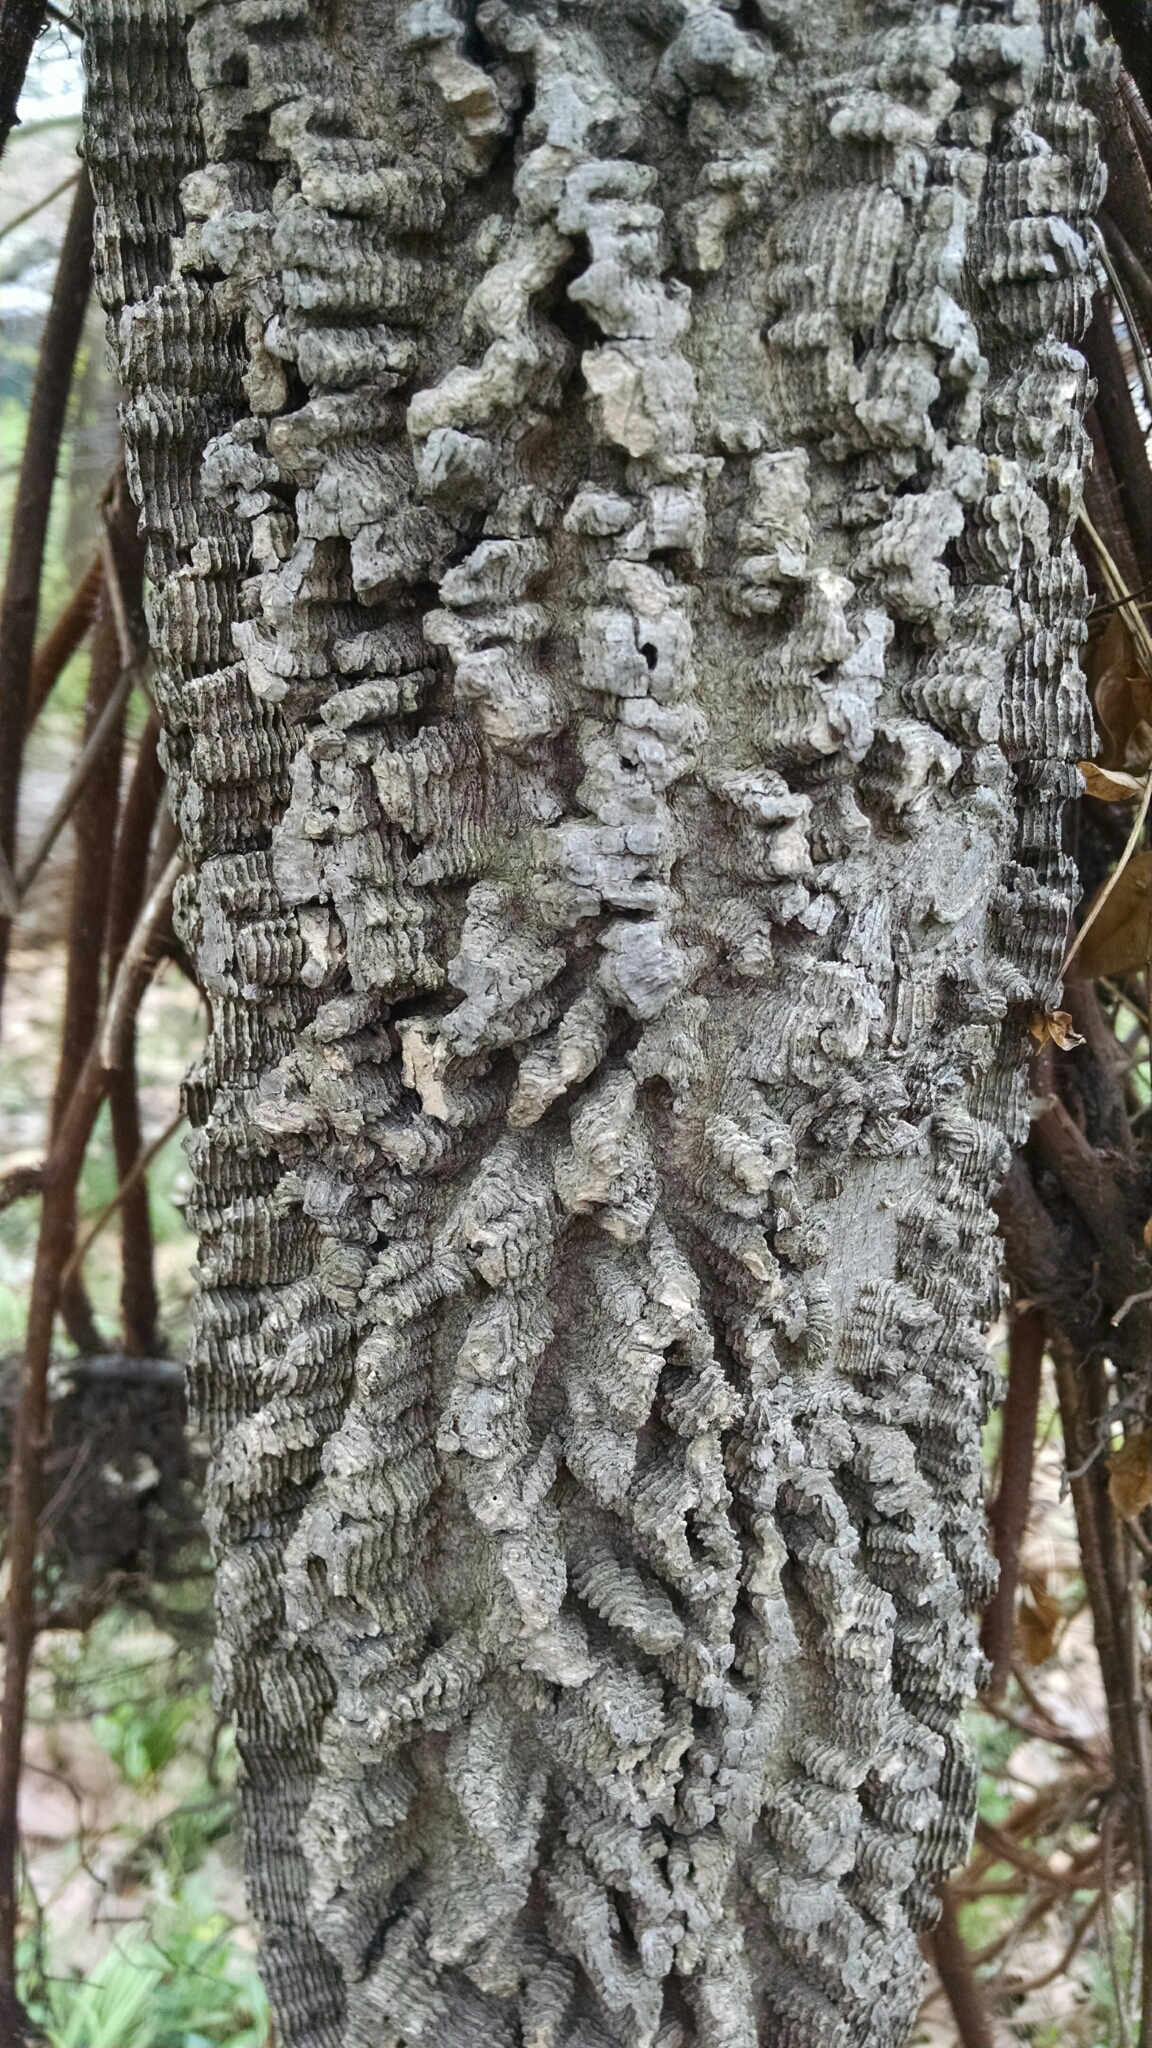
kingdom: Plantae
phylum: Tracheophyta
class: Magnoliopsida
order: Rosales
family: Cannabaceae
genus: Celtis
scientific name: Celtis occidentalis
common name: Common hackberry
